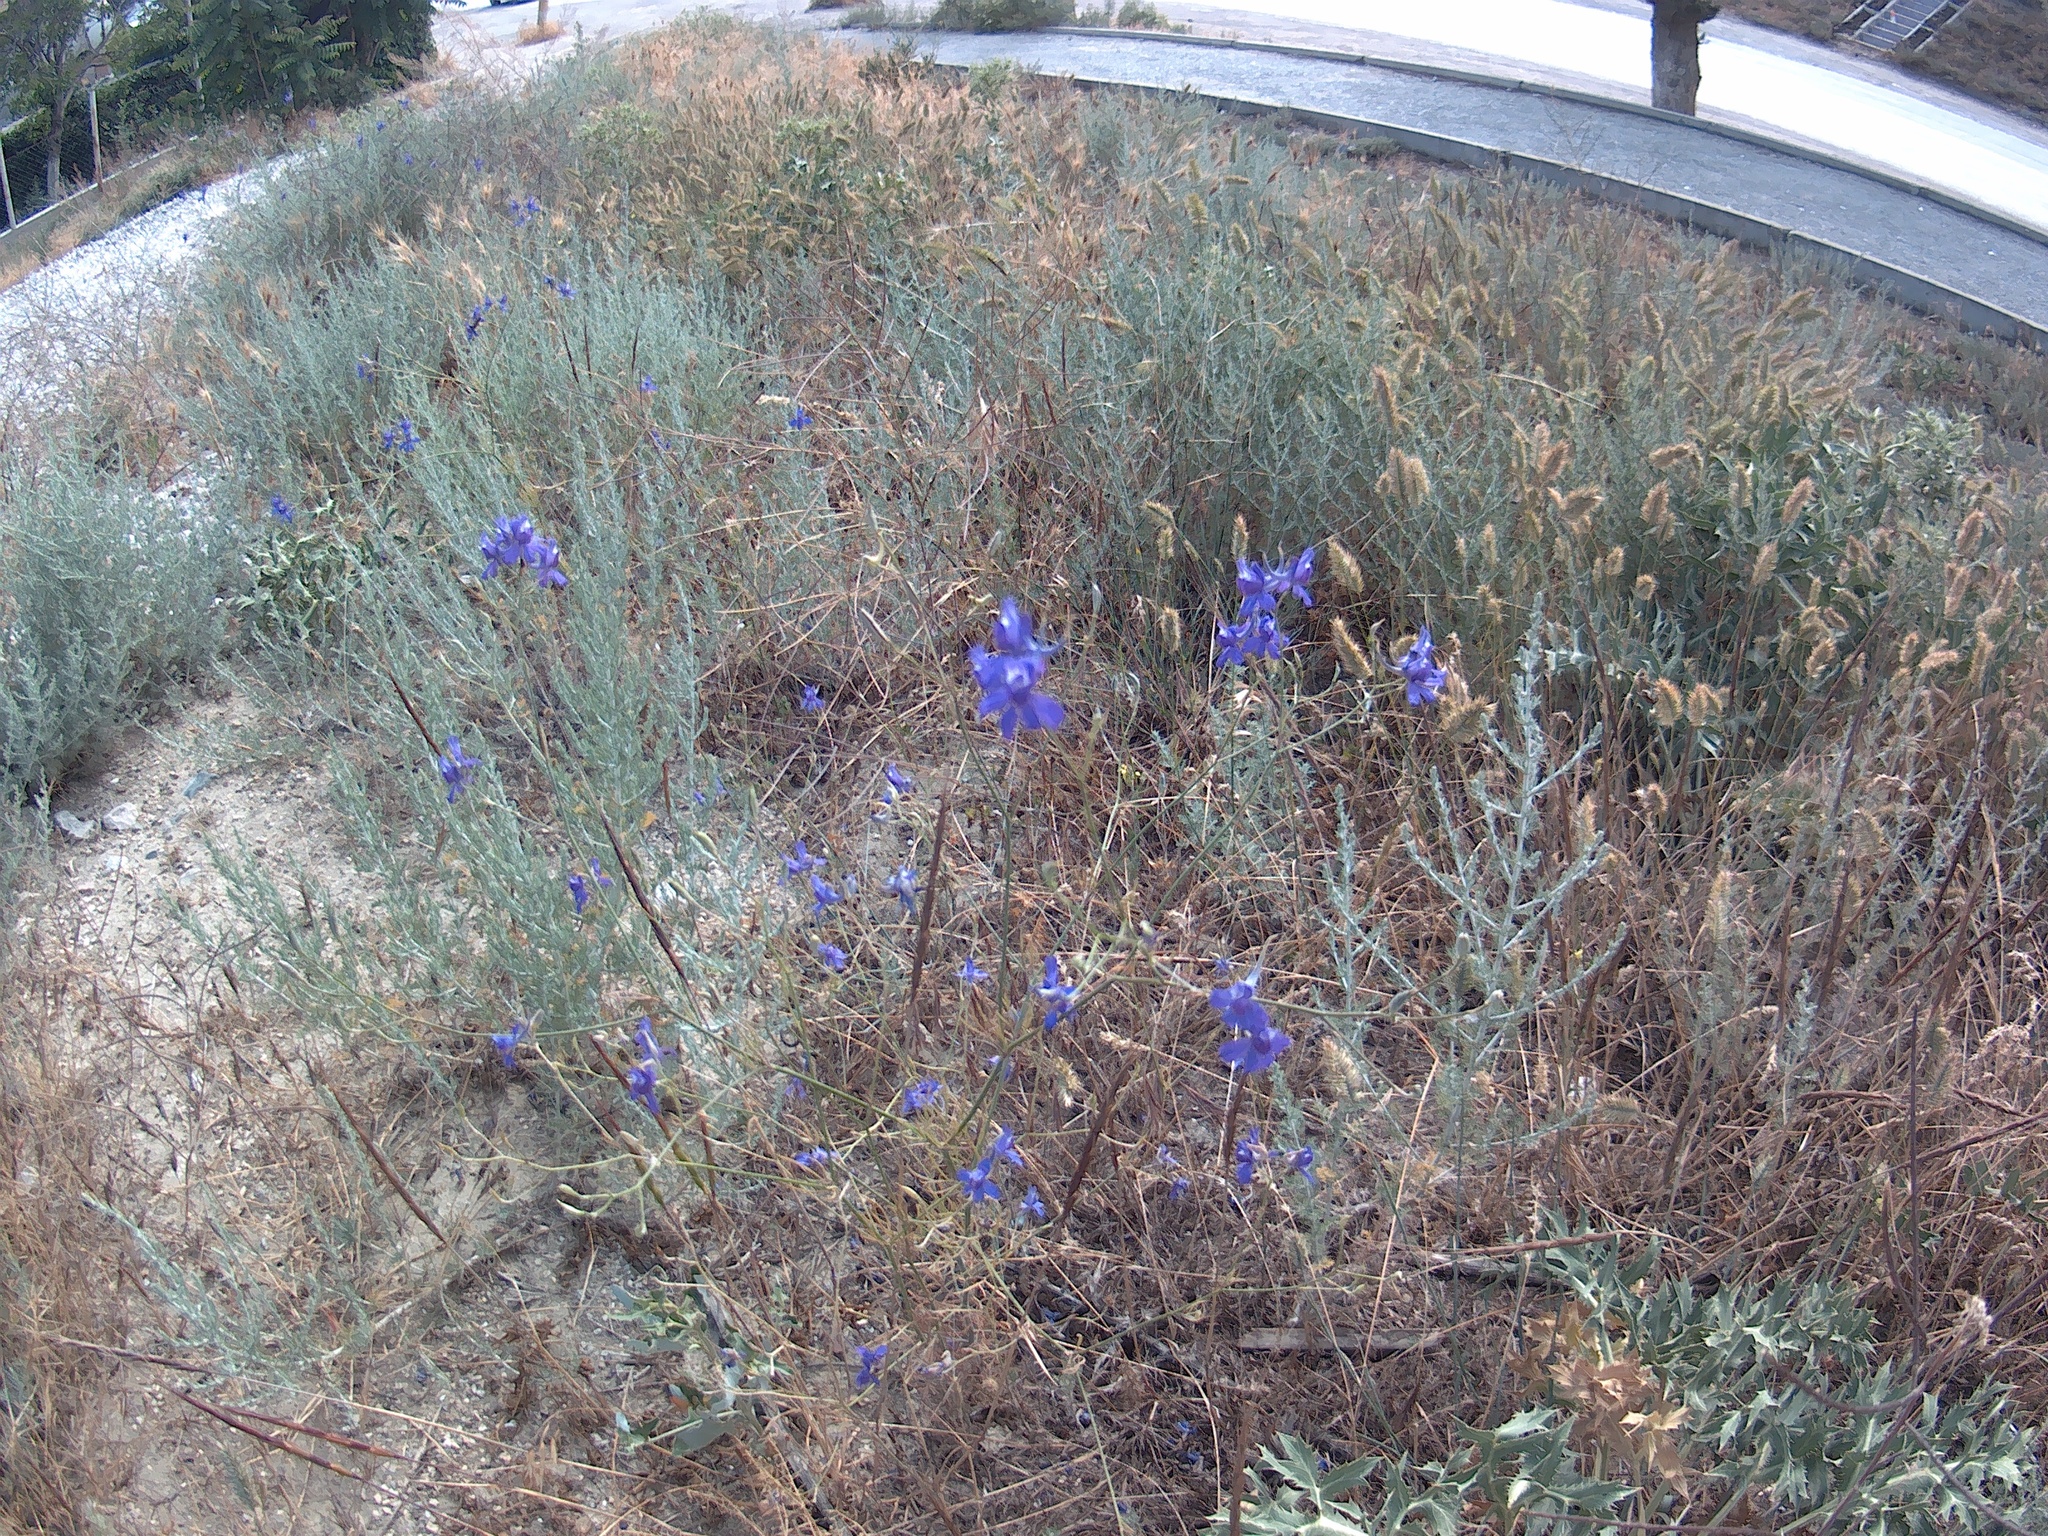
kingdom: Plantae
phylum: Tracheophyta
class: Magnoliopsida
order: Ranunculales
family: Ranunculaceae
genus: Delphinium
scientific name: Delphinium consolida
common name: Branching larkspur
